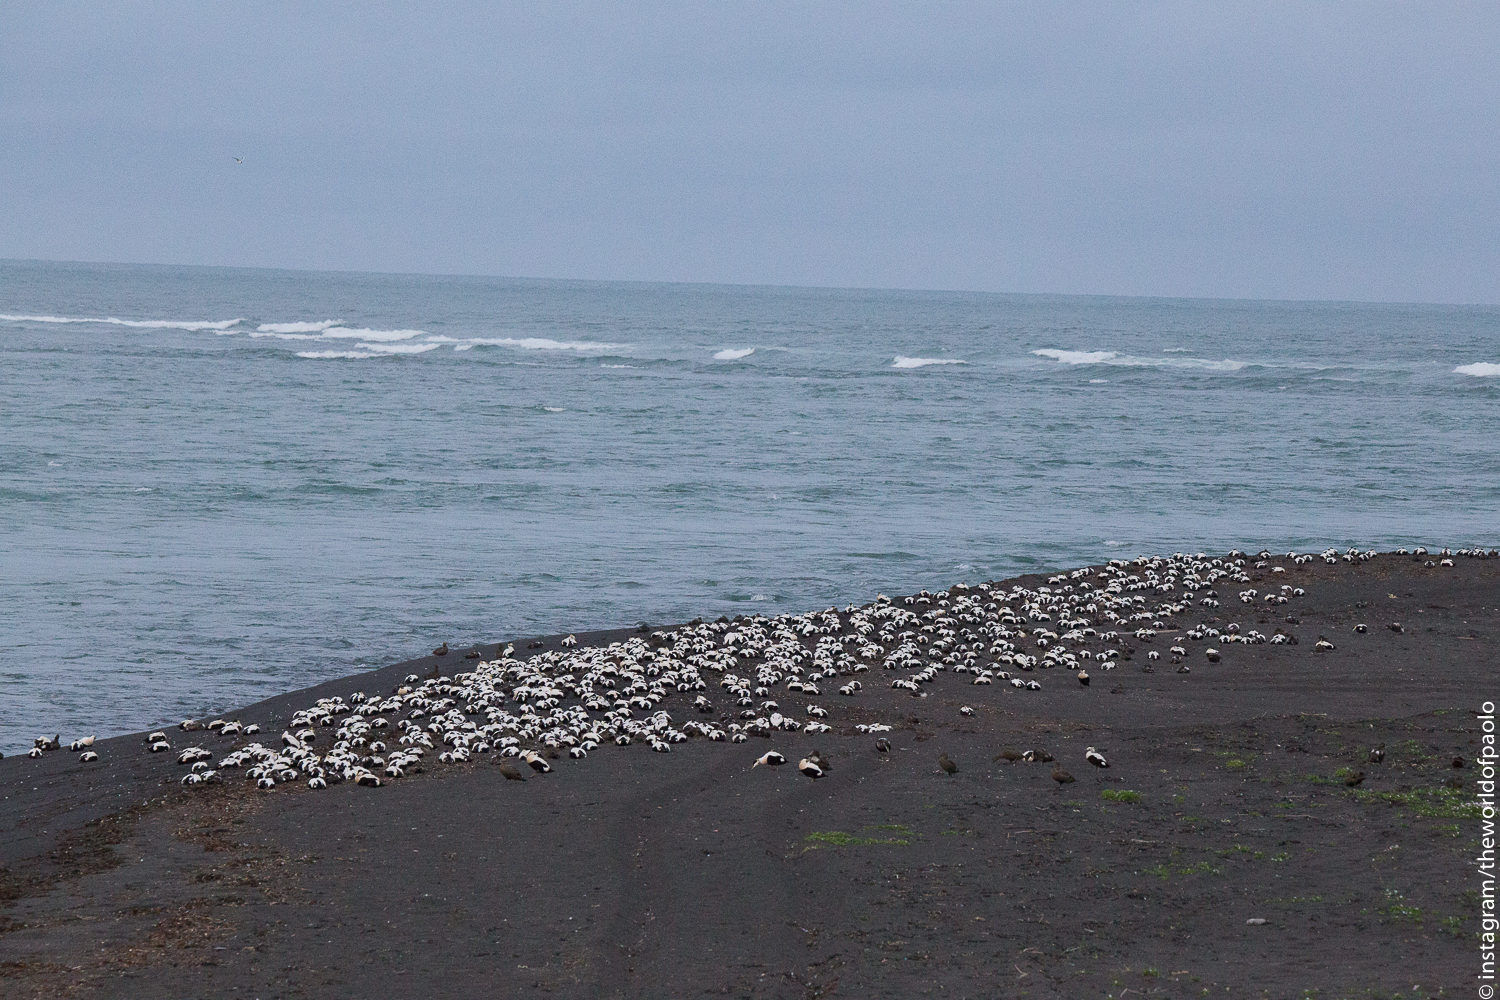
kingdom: Animalia
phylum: Chordata
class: Aves
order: Anseriformes
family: Anatidae
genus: Somateria
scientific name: Somateria mollissima
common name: Common eider
